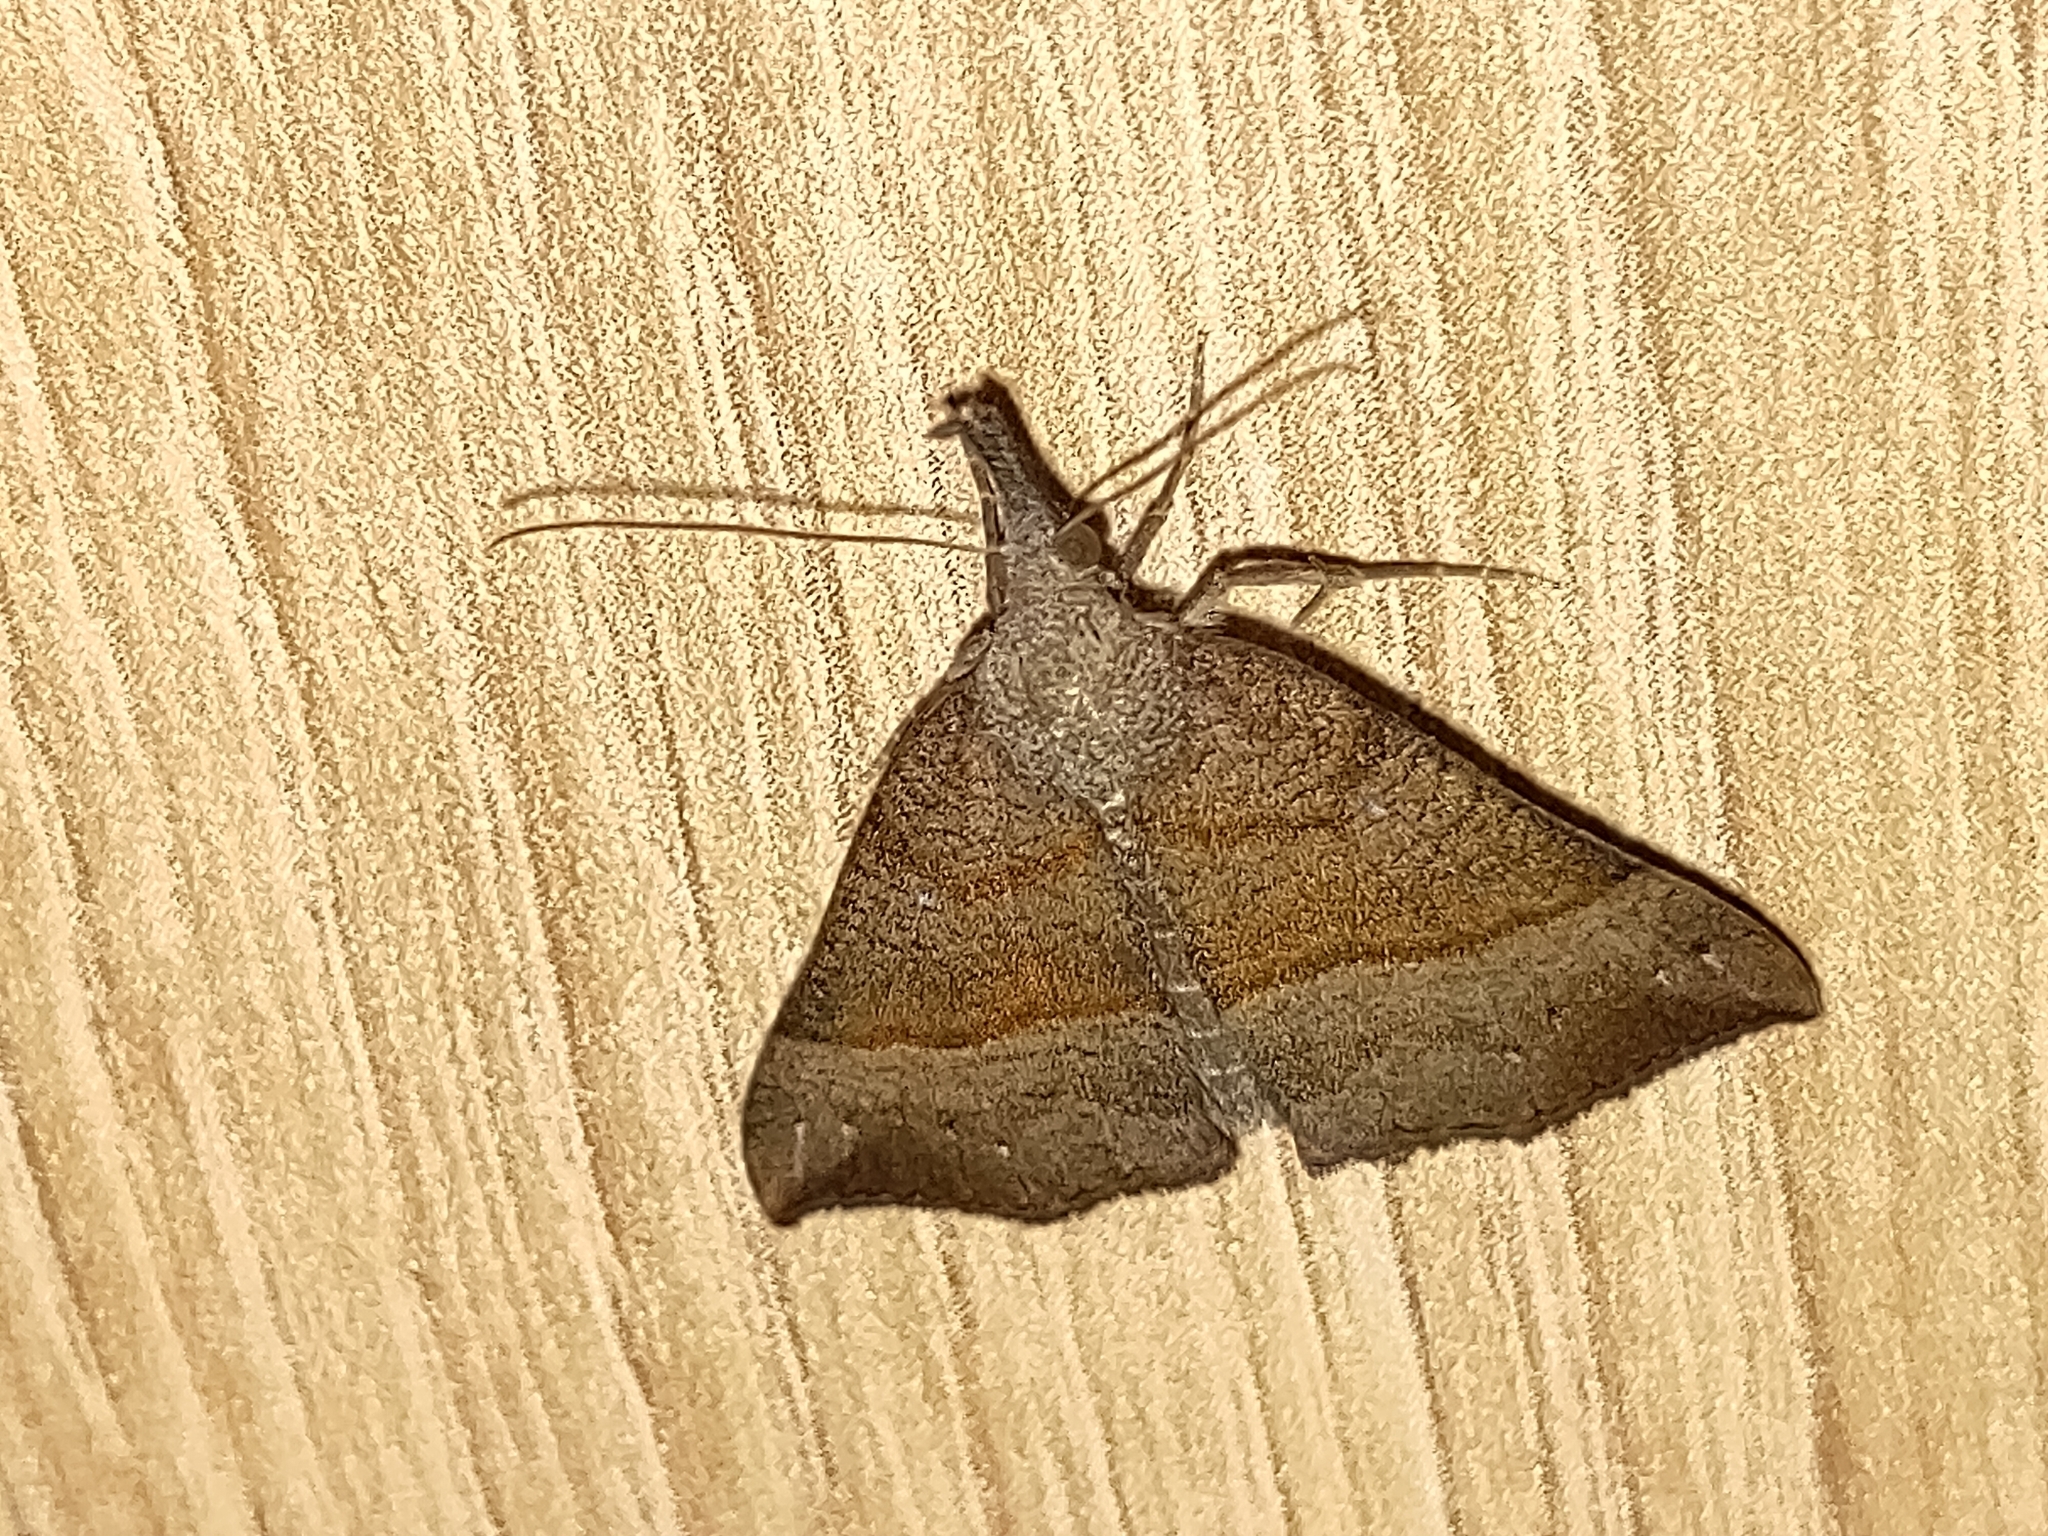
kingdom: Animalia
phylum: Arthropoda
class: Insecta
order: Lepidoptera
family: Erebidae
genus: Hypena
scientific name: Hypena proboscidalis
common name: Snout
